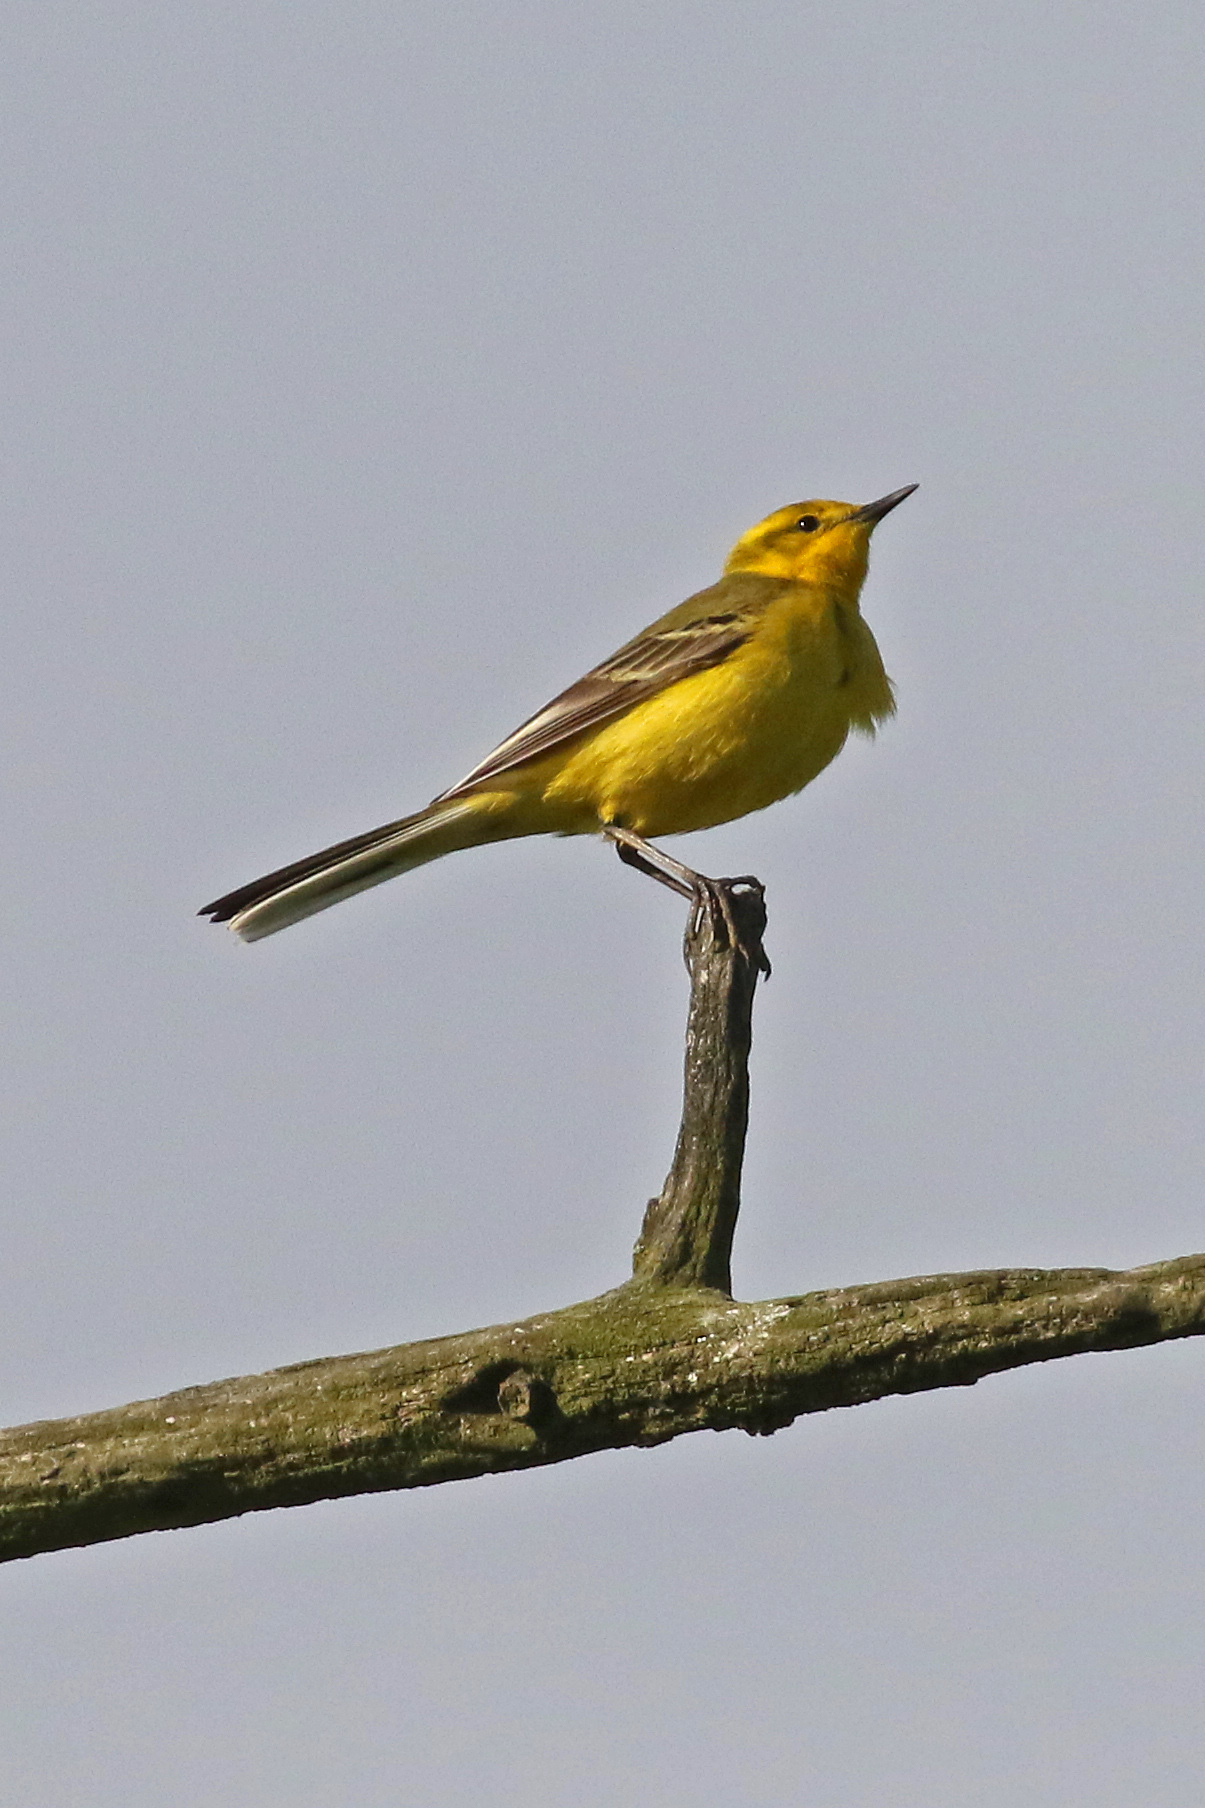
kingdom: Animalia
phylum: Chordata
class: Aves
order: Passeriformes
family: Motacillidae
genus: Motacilla
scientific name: Motacilla flava
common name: Western yellow wagtail
